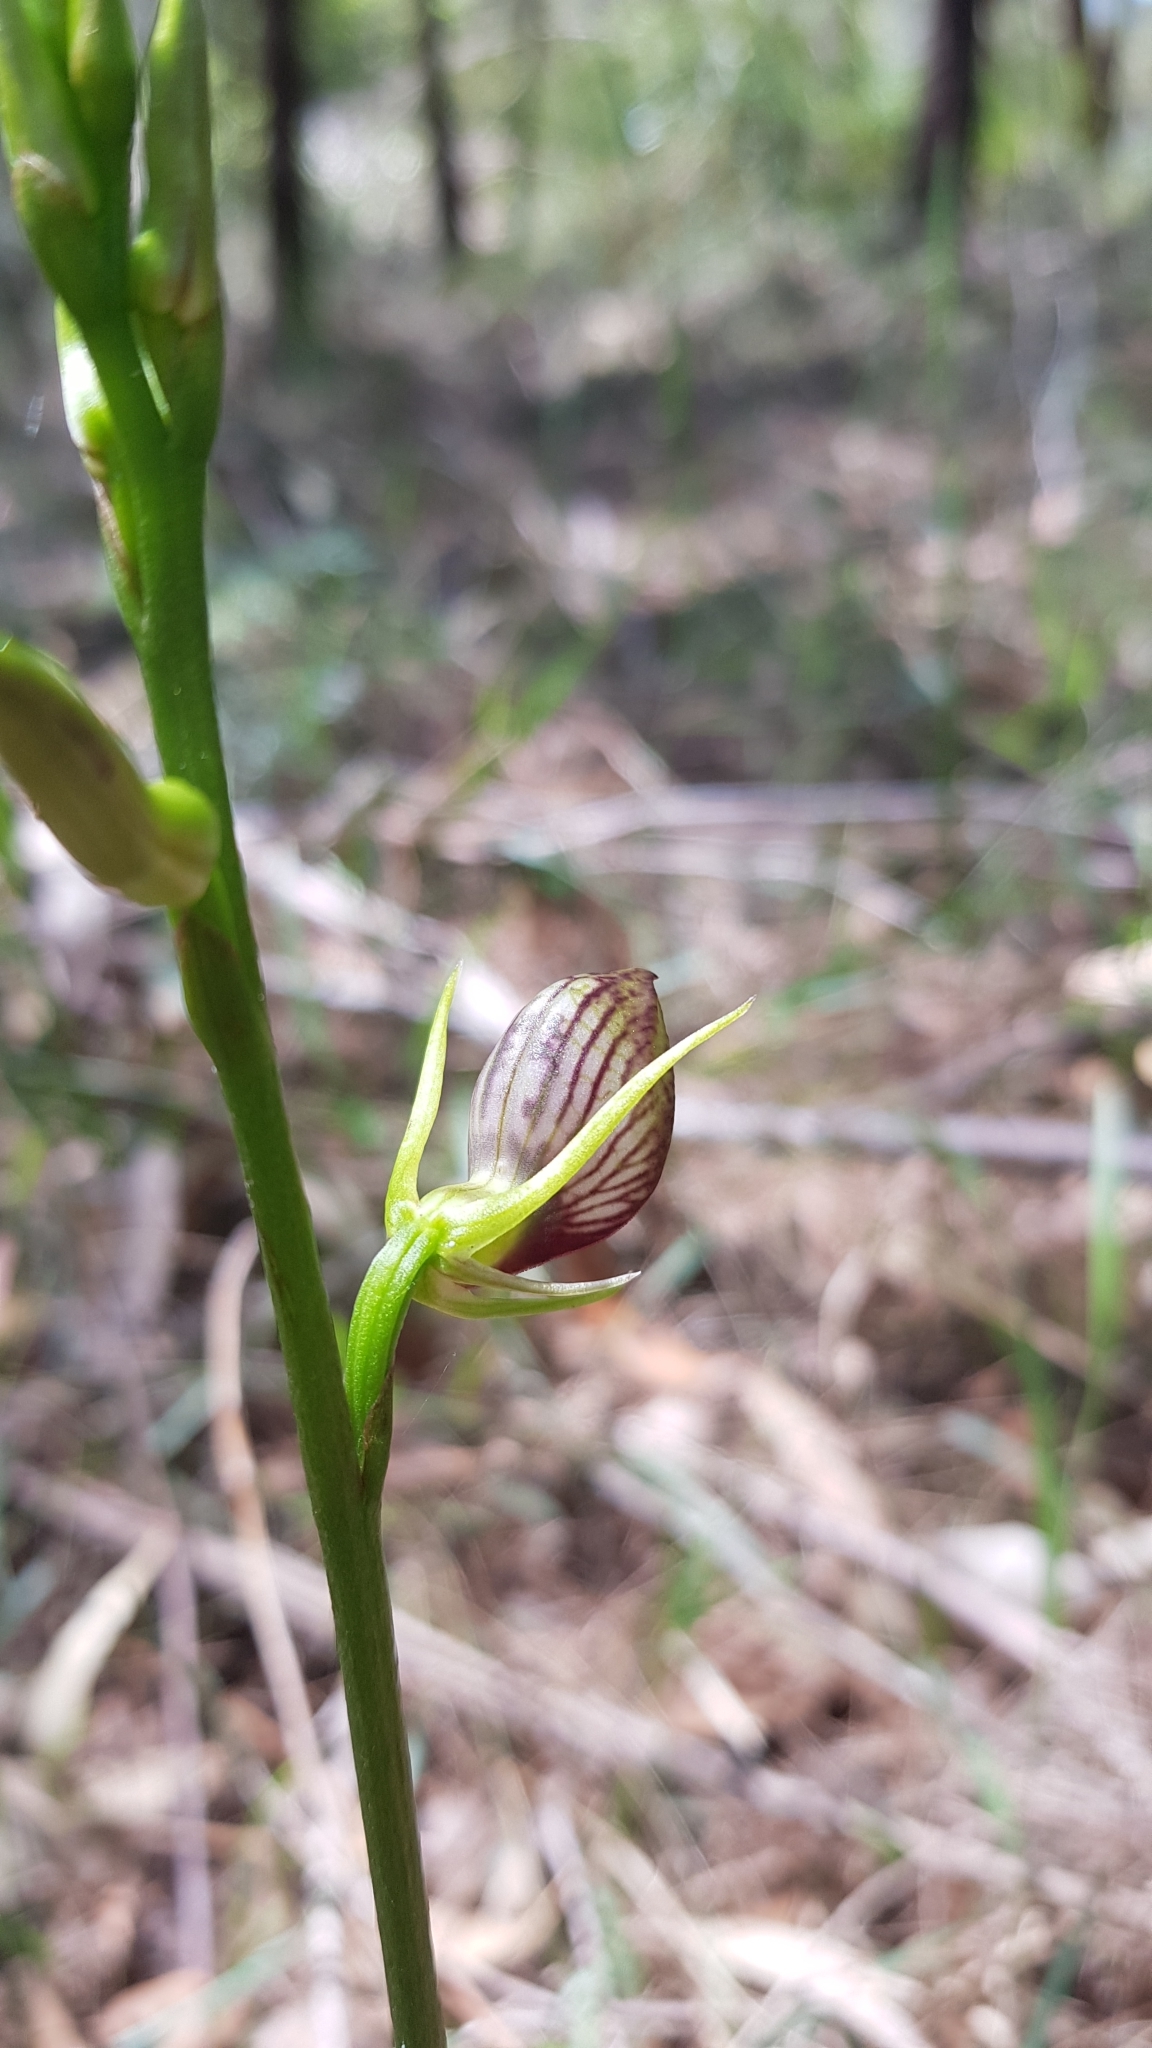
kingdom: Plantae
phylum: Tracheophyta
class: Liliopsida
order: Asparagales
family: Orchidaceae
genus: Cryptostylis
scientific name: Cryptostylis erecta
